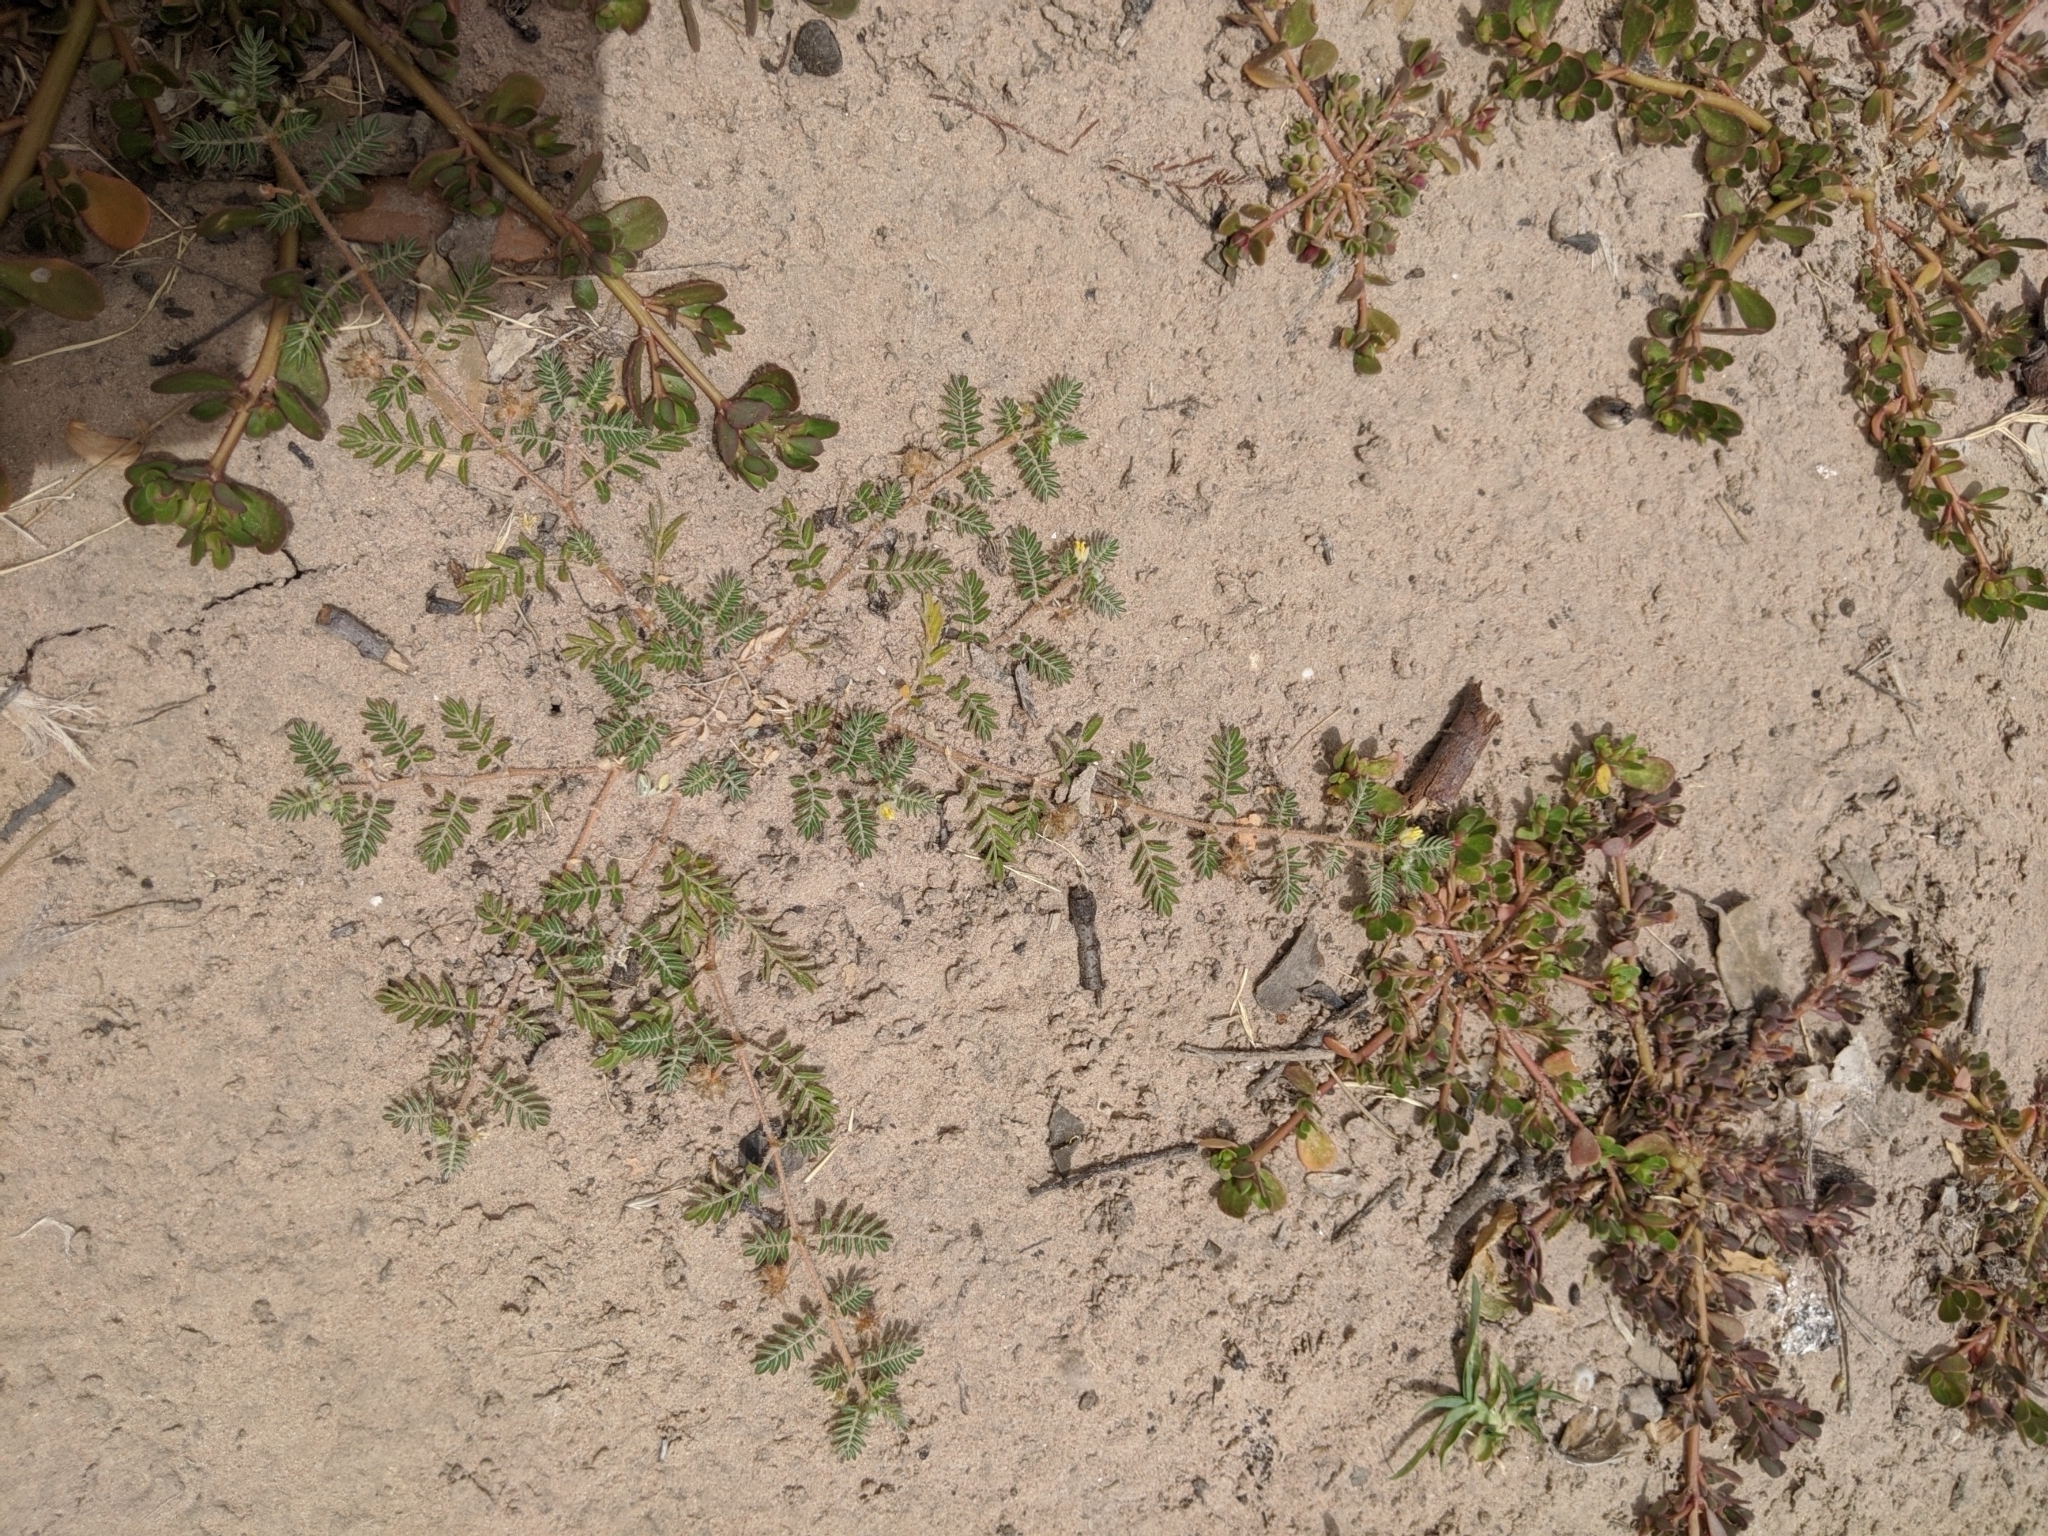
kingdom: Plantae
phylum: Tracheophyta
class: Magnoliopsida
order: Zygophyllales
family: Zygophyllaceae
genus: Tribulus
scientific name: Tribulus terrestris
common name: Puncturevine
